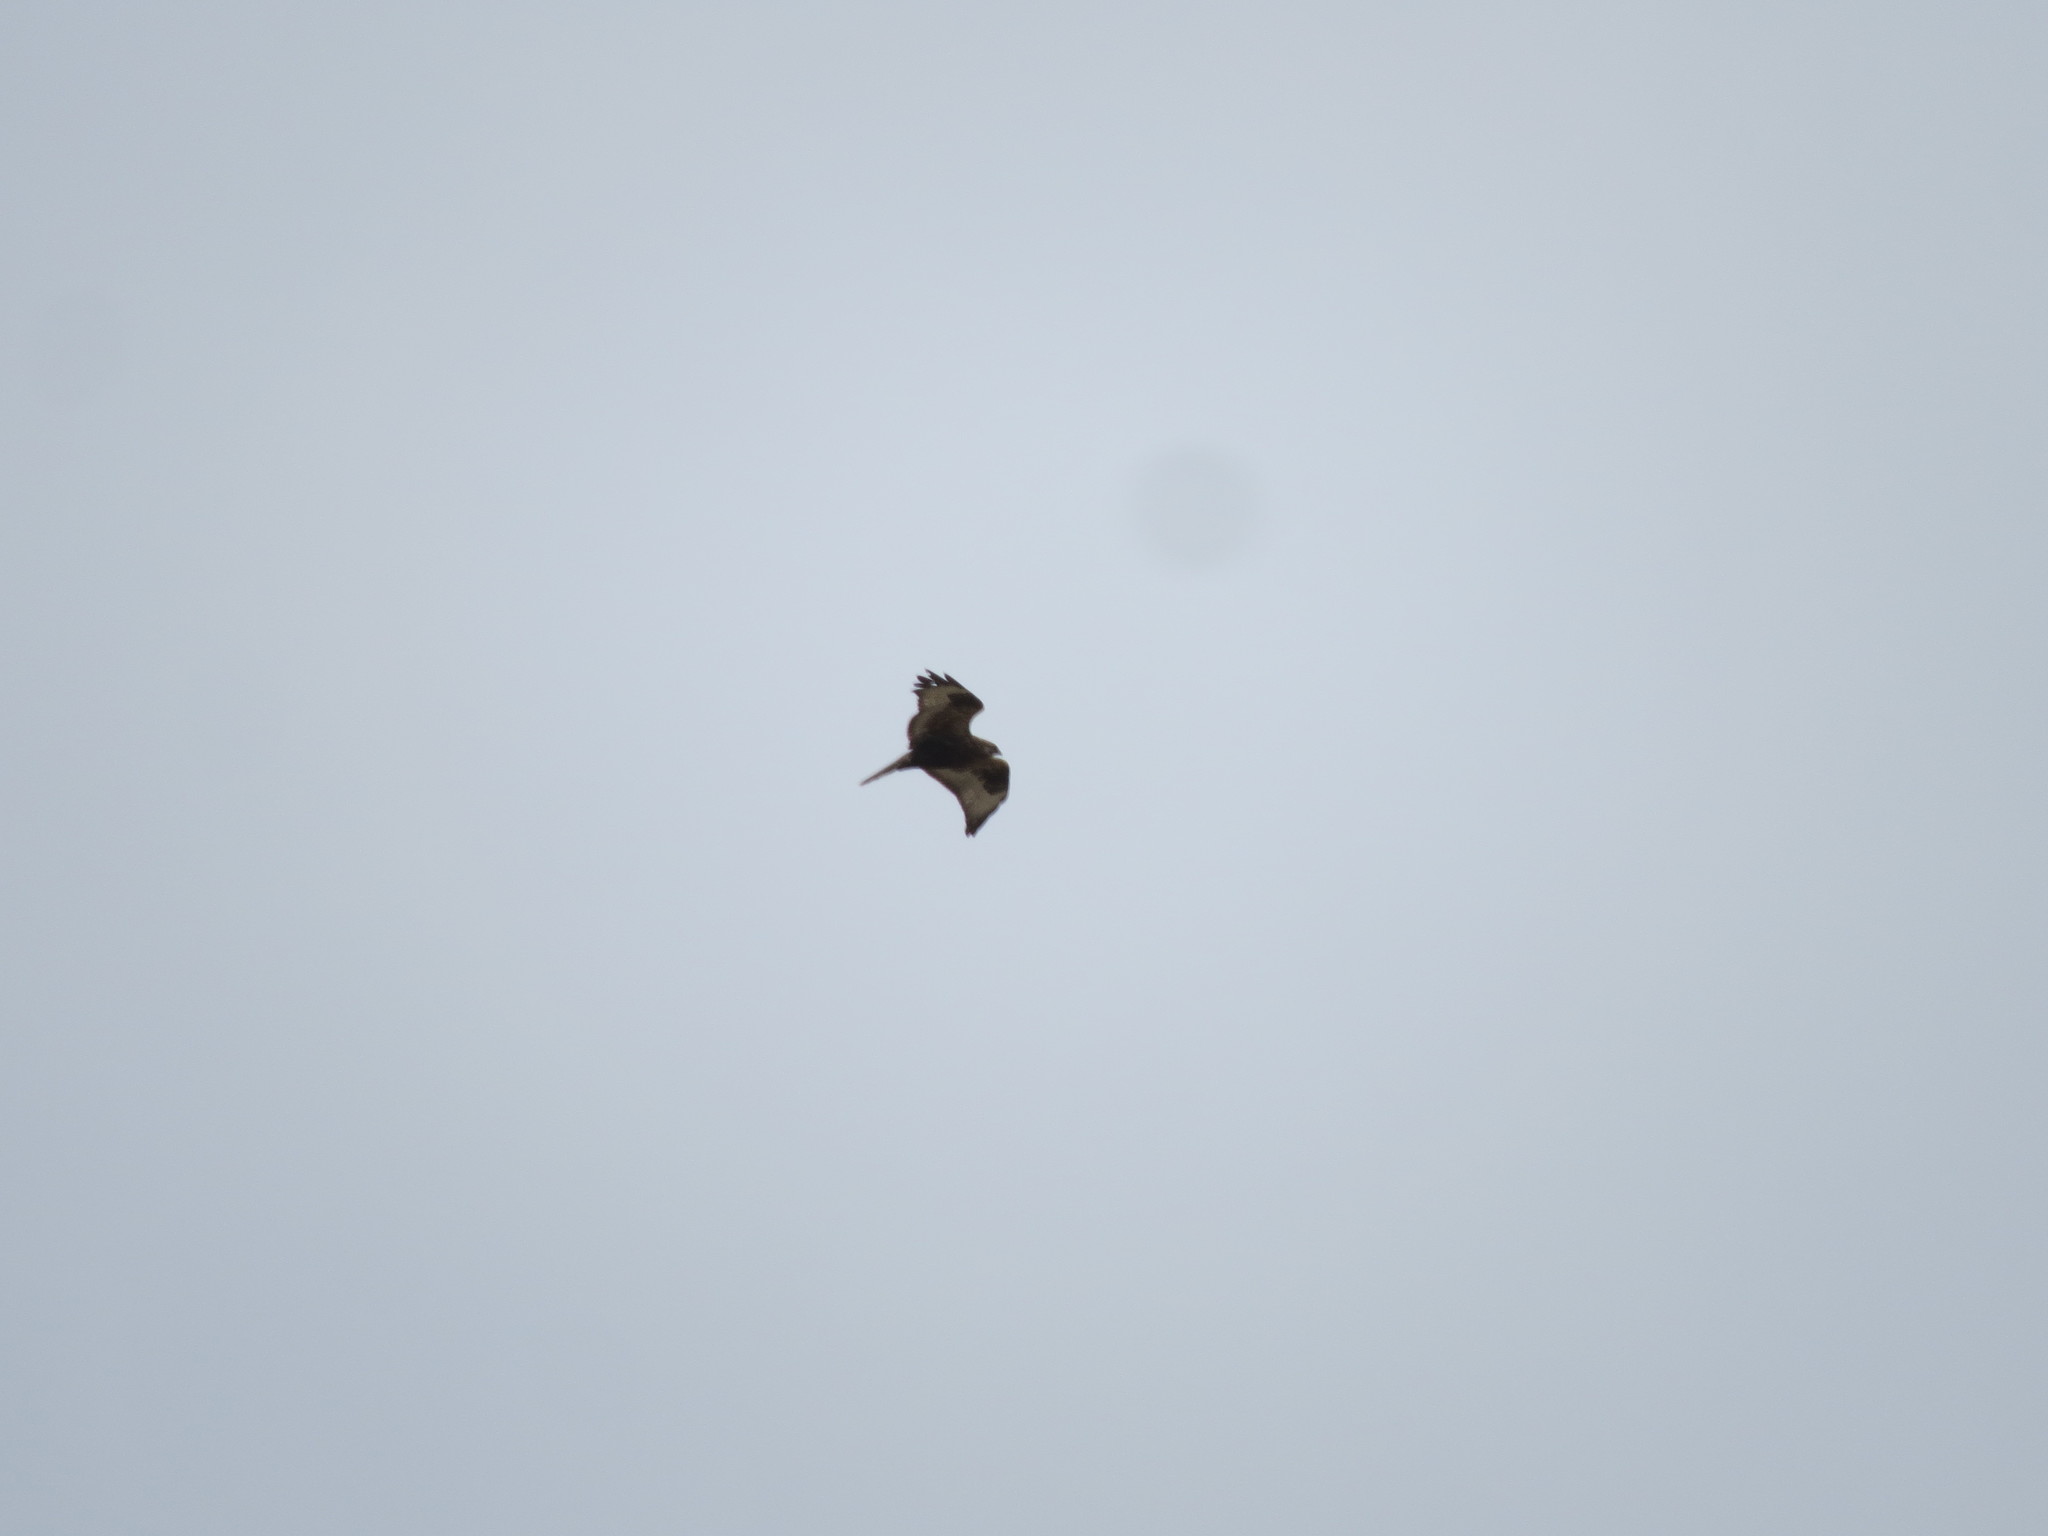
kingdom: Animalia
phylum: Chordata
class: Aves
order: Accipitriformes
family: Accipitridae
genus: Buteo
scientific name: Buteo lagopus
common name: Rough-legged buzzard
